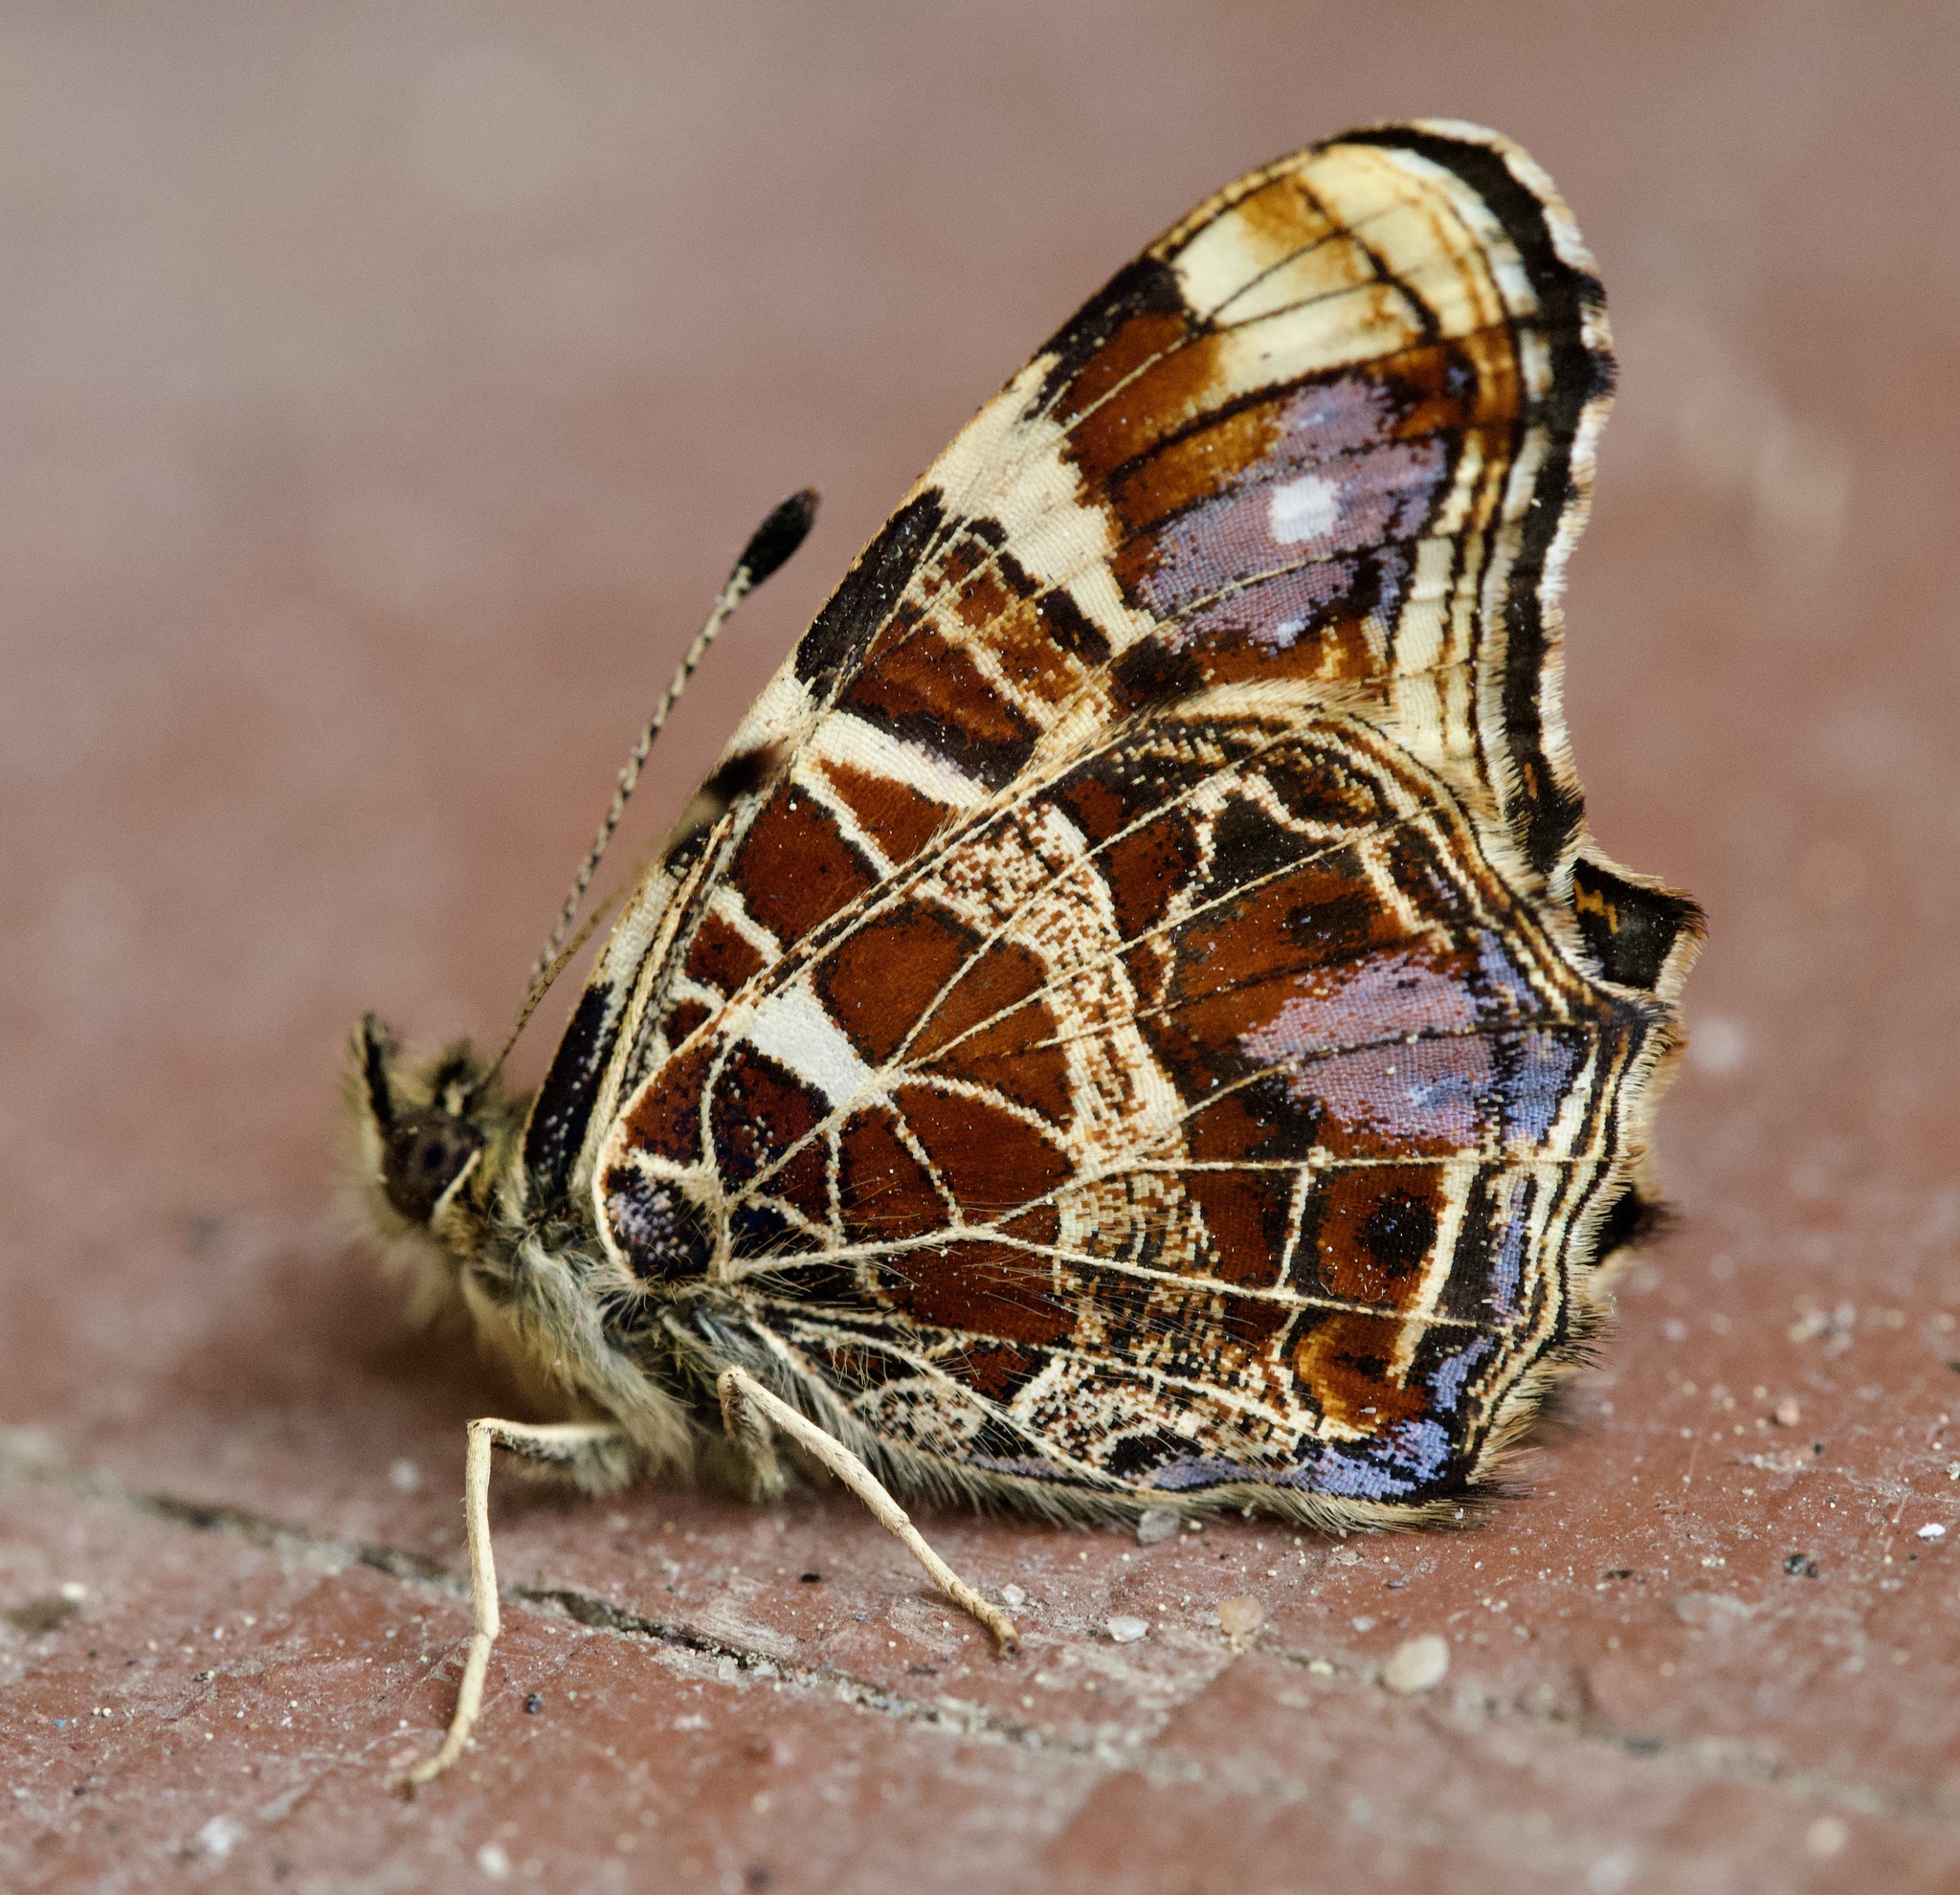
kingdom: Animalia
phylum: Arthropoda
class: Insecta
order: Lepidoptera
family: Nymphalidae
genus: Araschnia
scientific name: Araschnia levana
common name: Map butterfly
